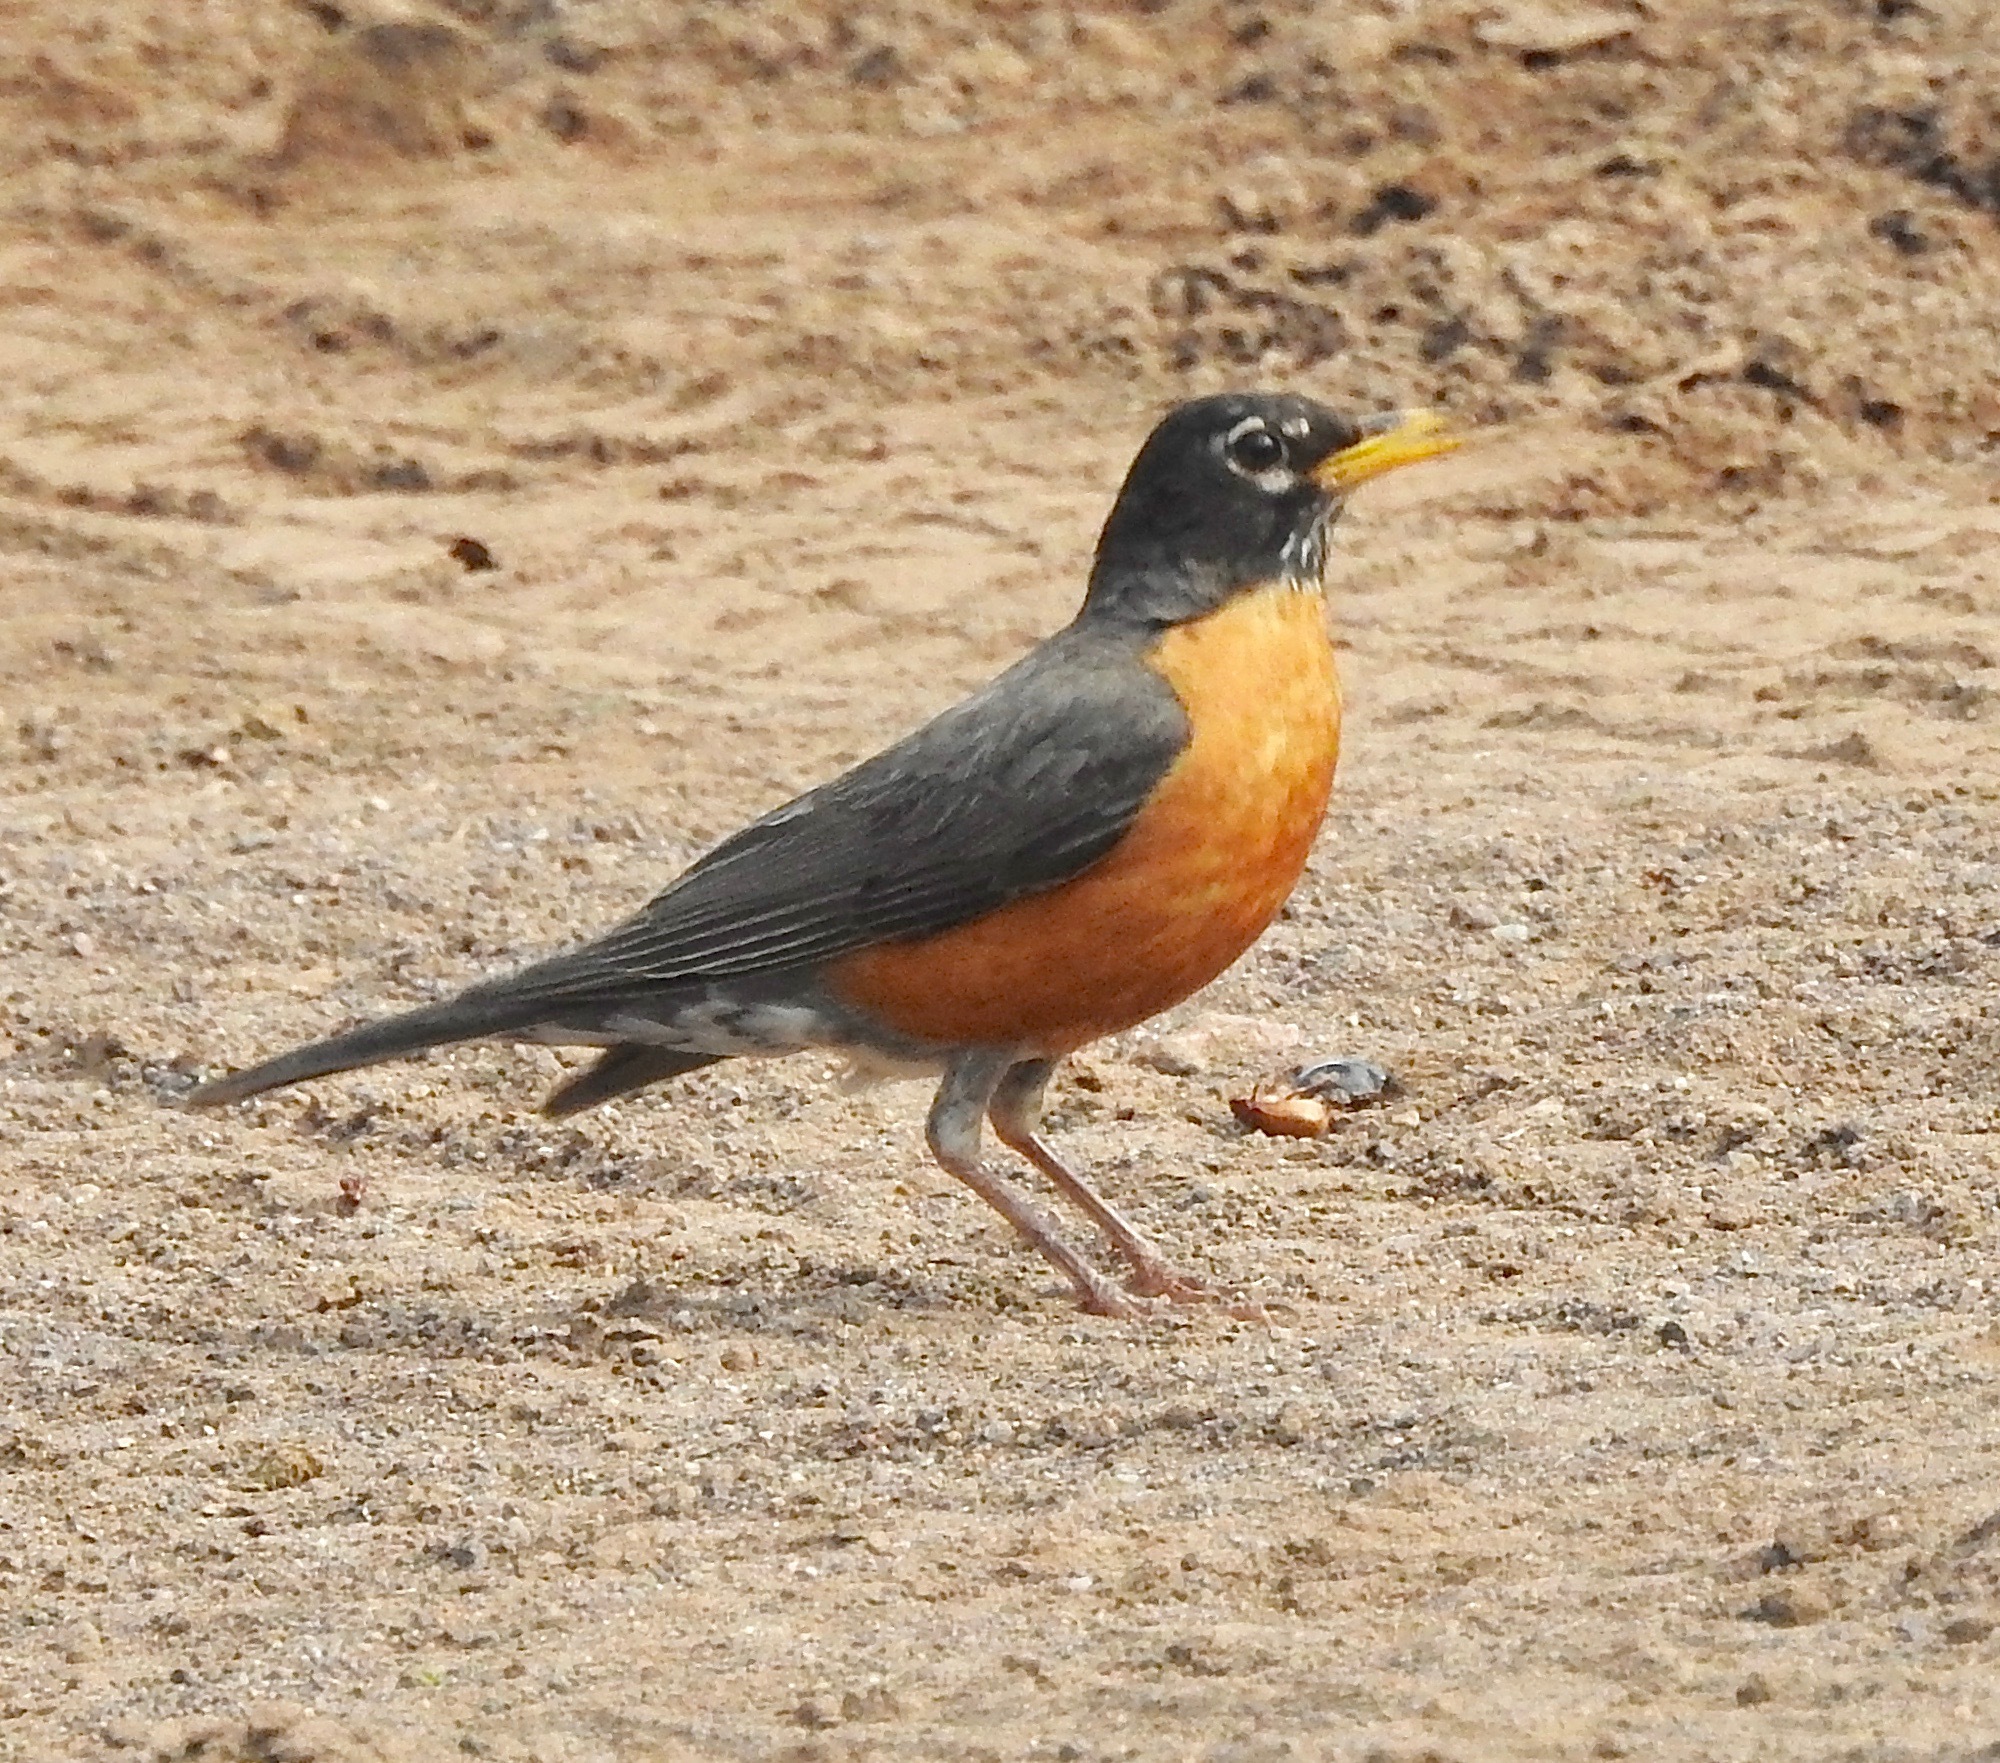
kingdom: Animalia
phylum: Chordata
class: Aves
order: Passeriformes
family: Turdidae
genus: Turdus
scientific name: Turdus migratorius
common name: American robin
